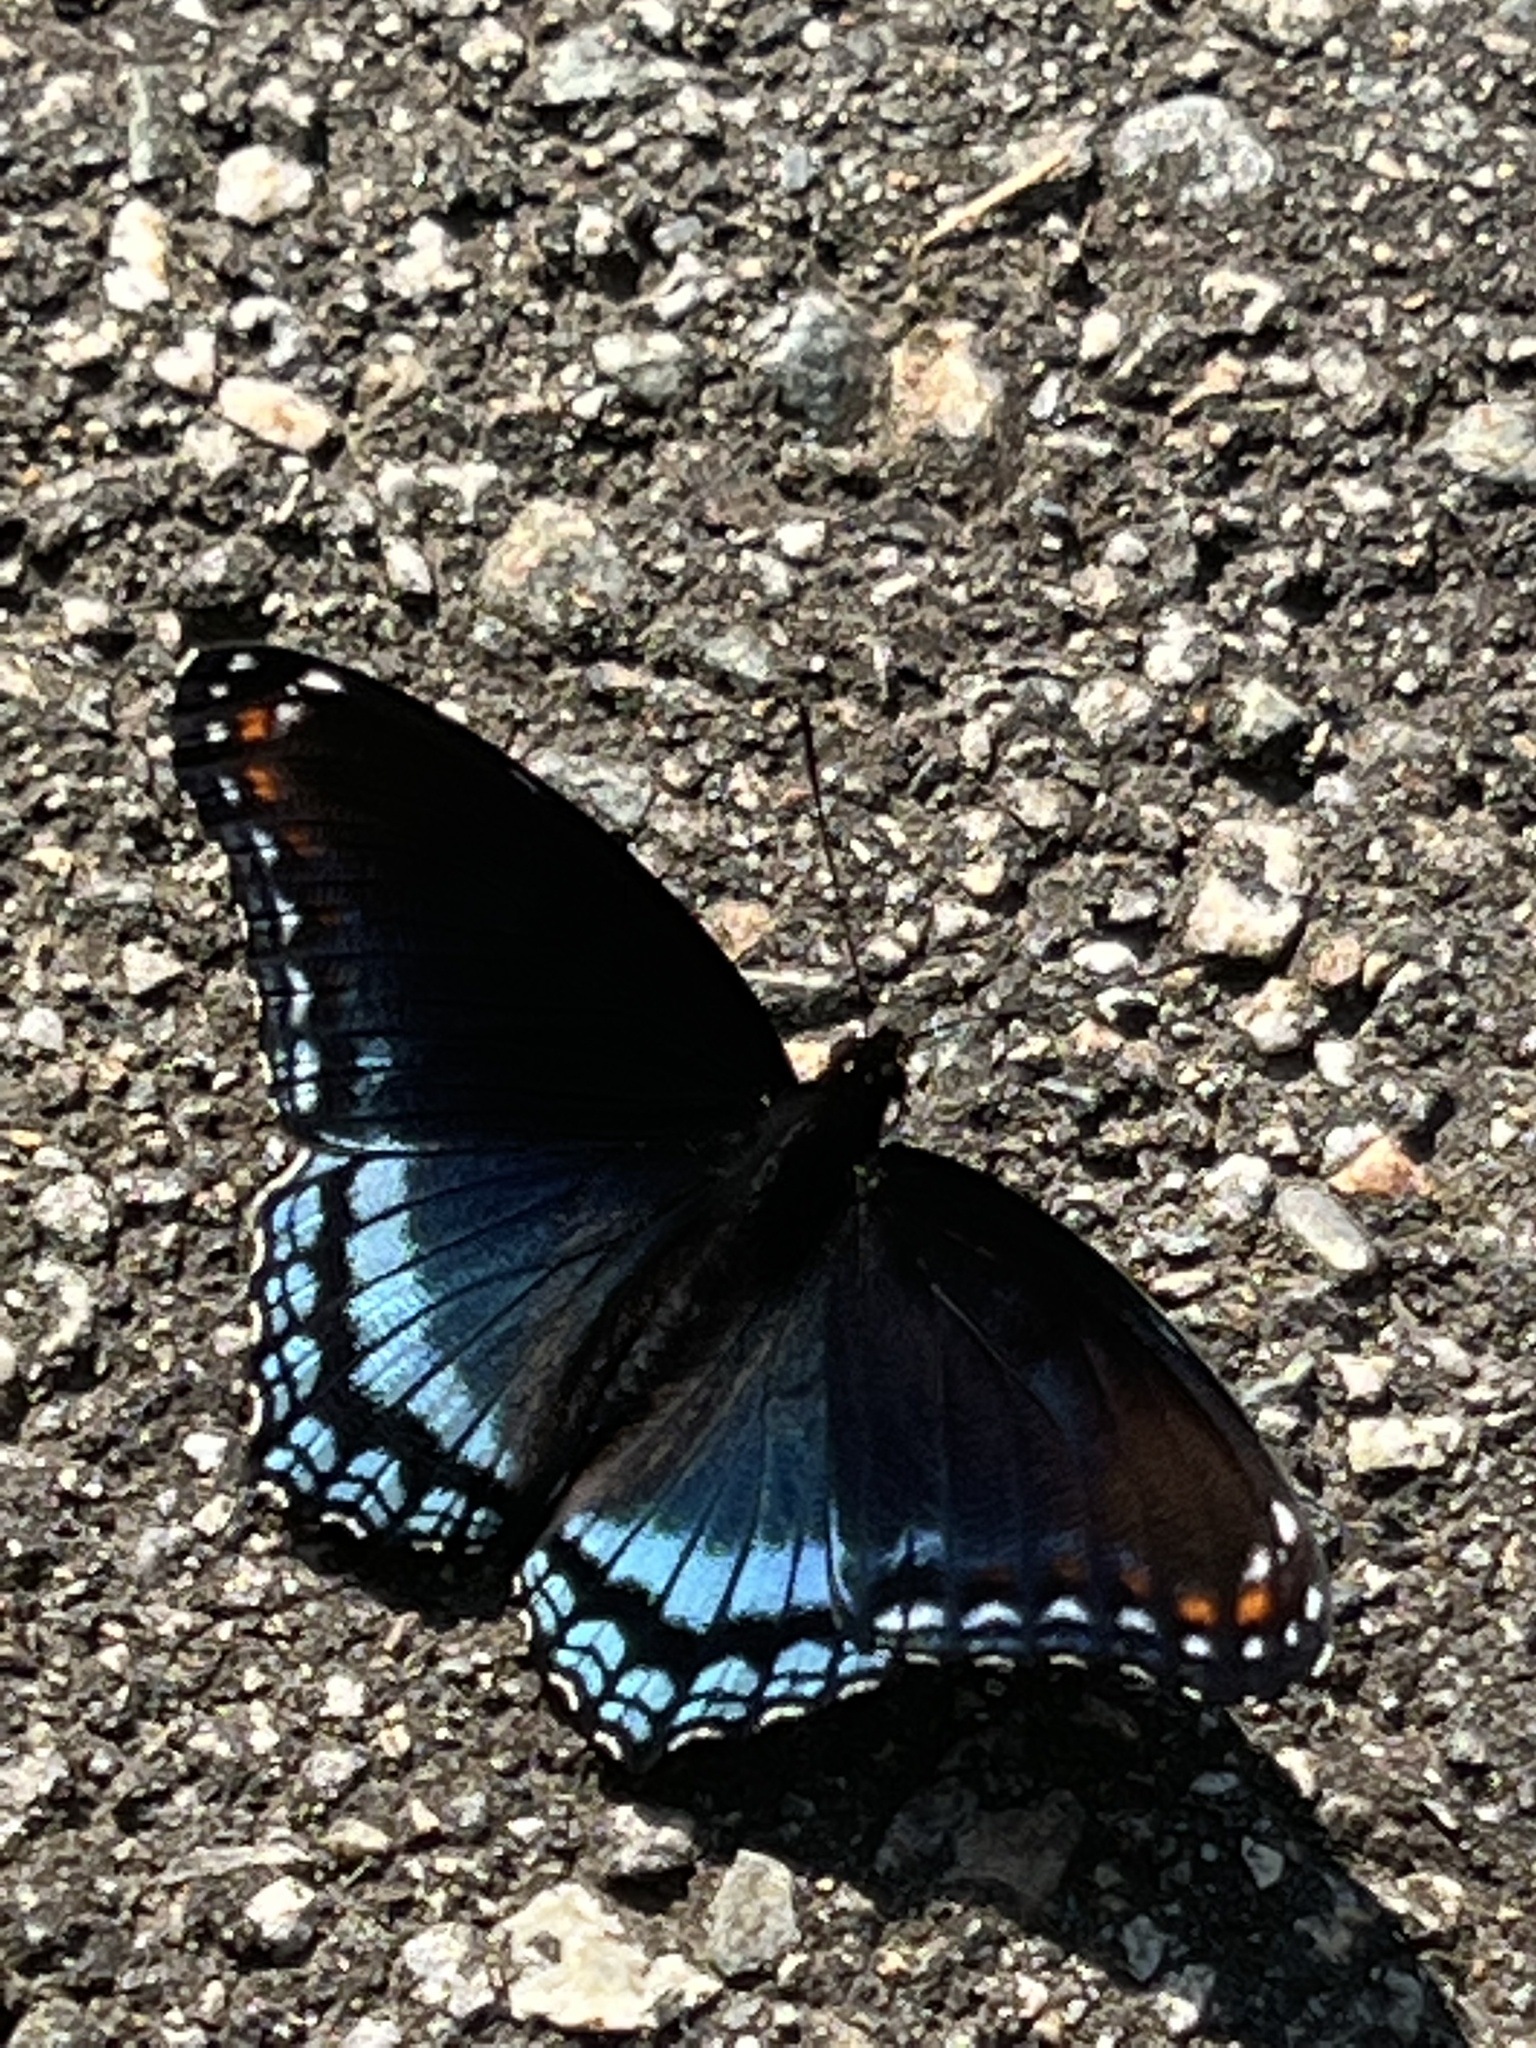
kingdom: Animalia
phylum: Arthropoda
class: Insecta
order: Lepidoptera
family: Nymphalidae
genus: Limenitis
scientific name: Limenitis arthemis
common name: Red-spotted admiral
